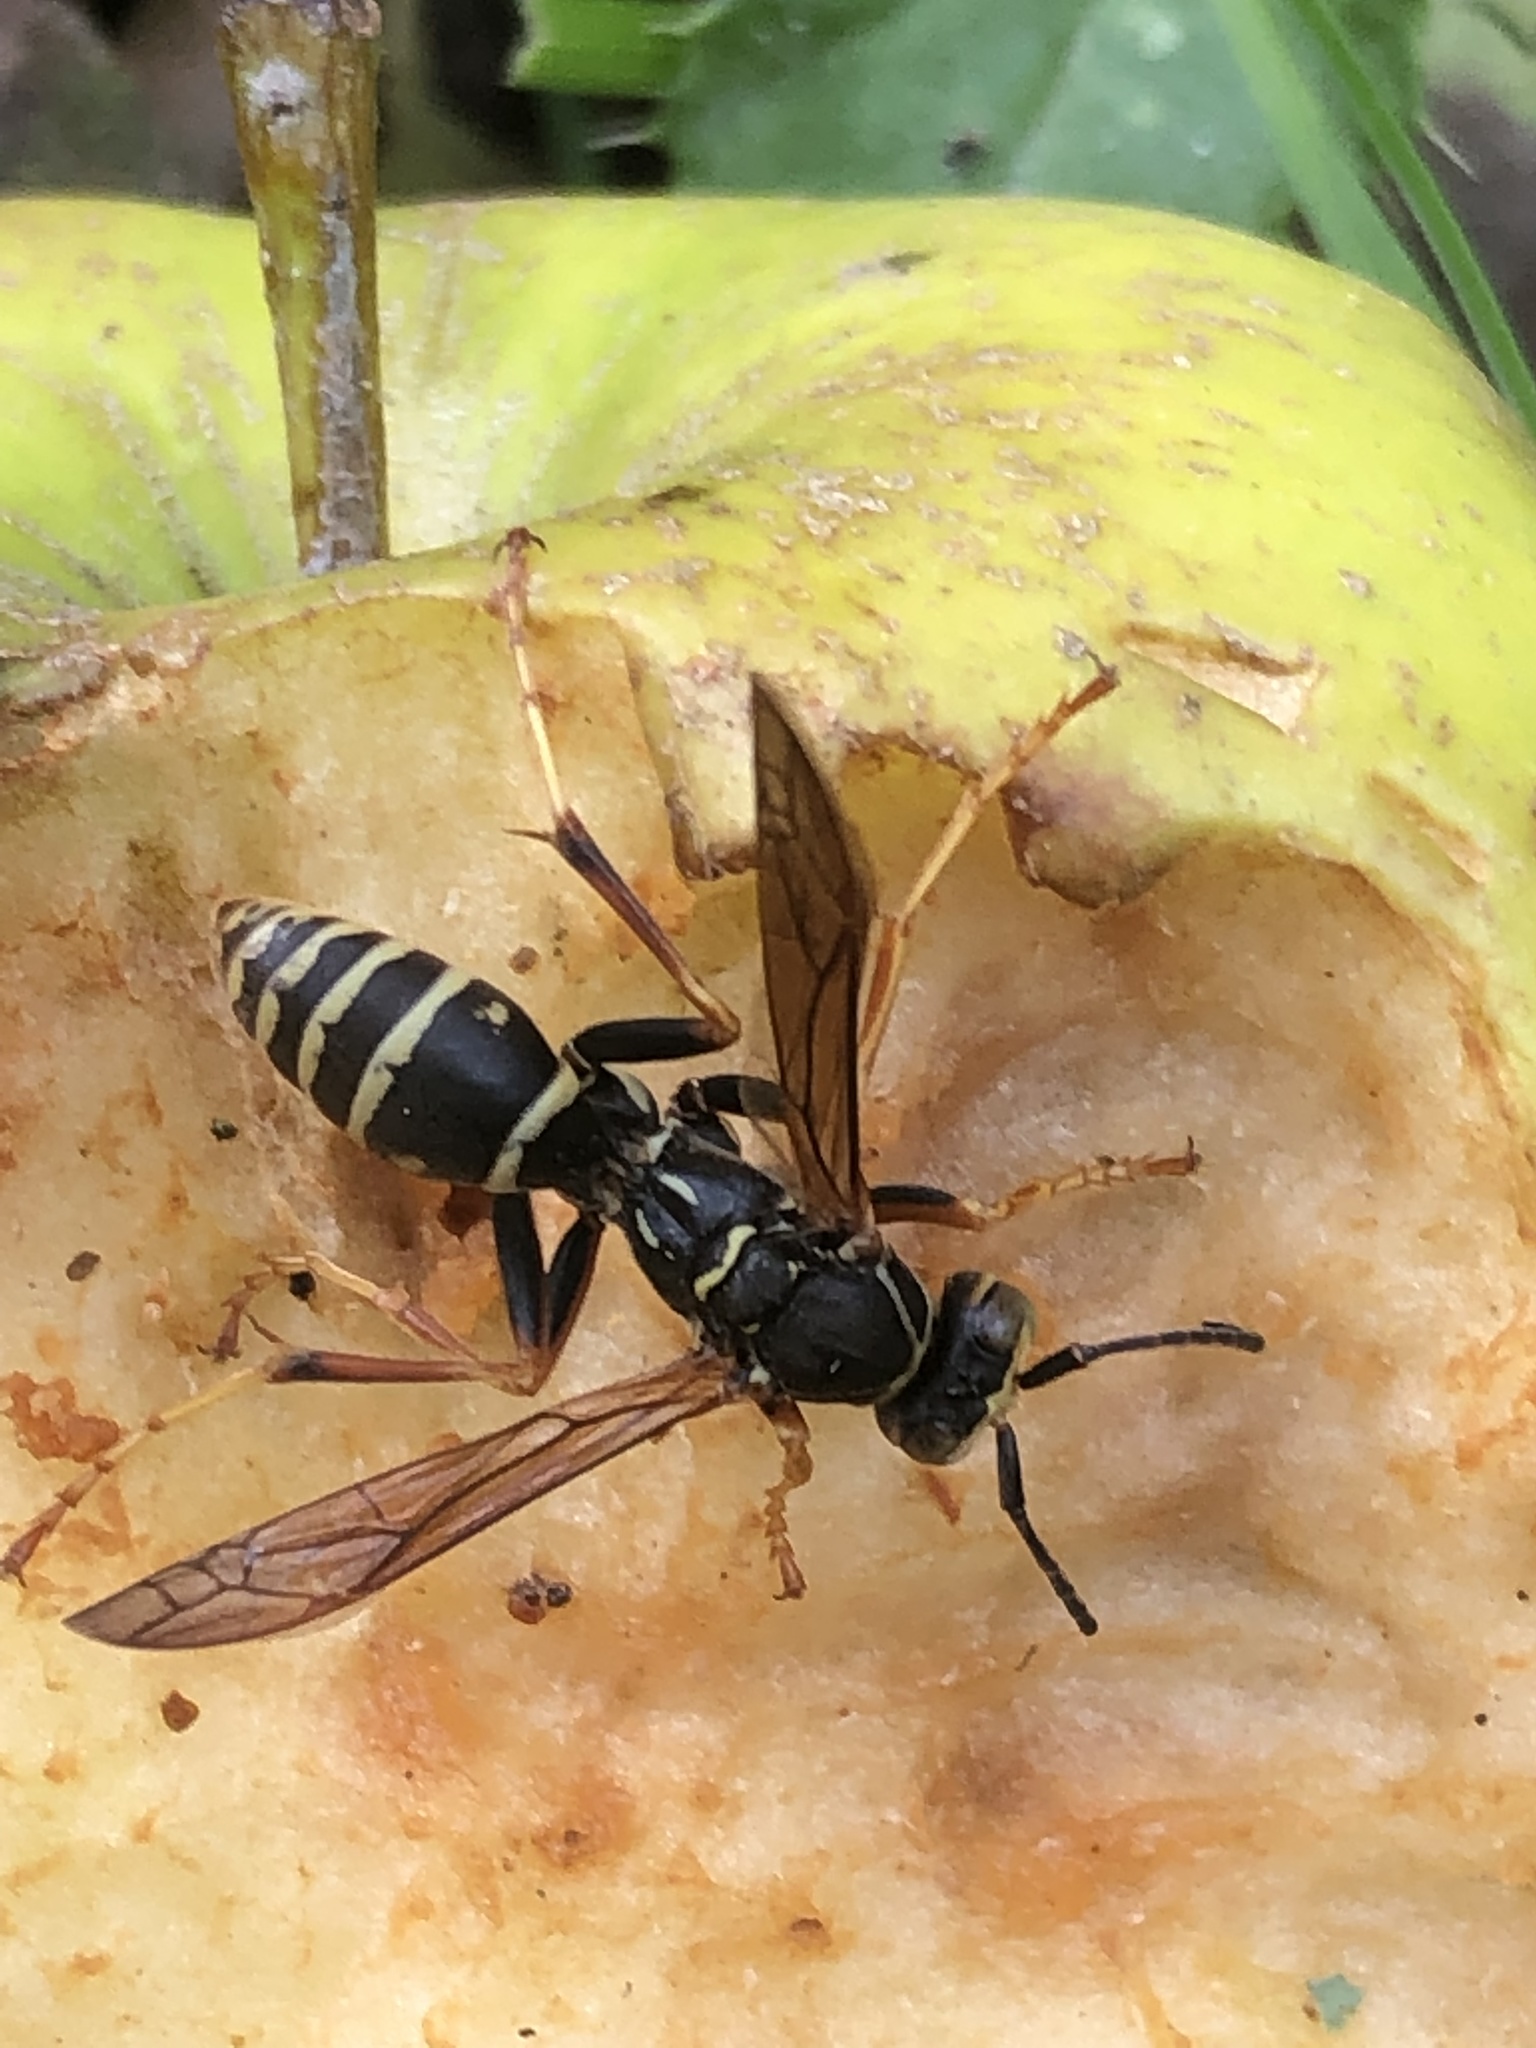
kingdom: Animalia
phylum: Arthropoda
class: Insecta
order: Hymenoptera
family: Eumenidae
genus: Polistes
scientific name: Polistes fuscatus
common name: Dark paper wasp
